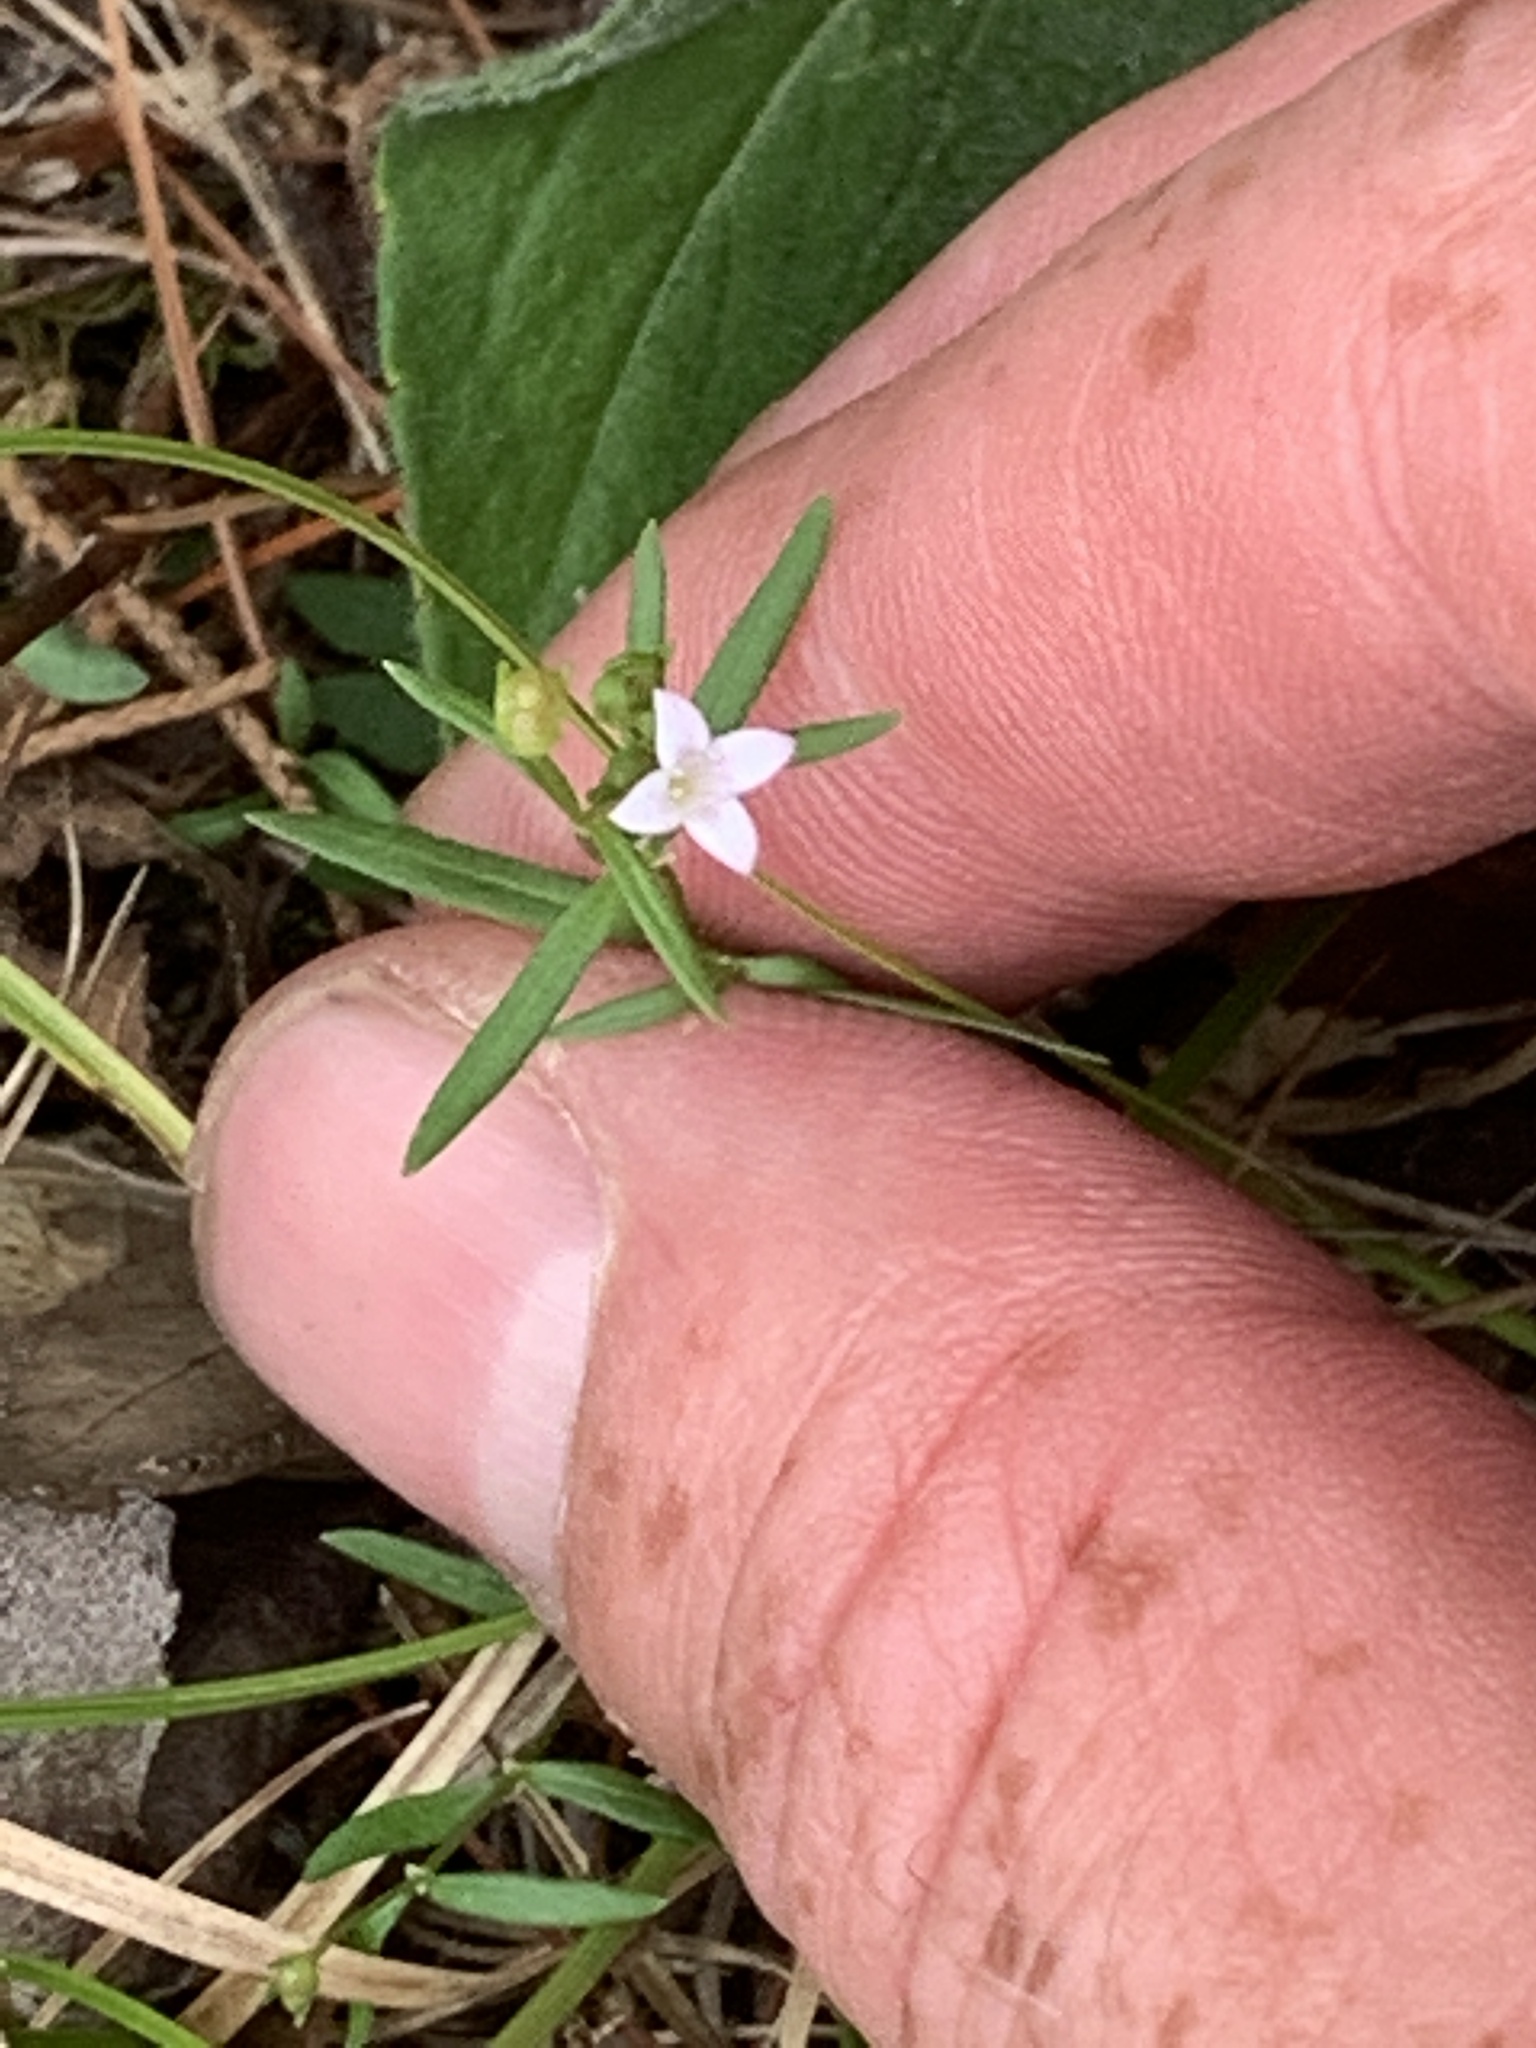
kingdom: Plantae
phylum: Tracheophyta
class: Magnoliopsida
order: Gentianales
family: Rubiaceae
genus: Houstonia
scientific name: Houstonia longifolia
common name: Long-leaved bluets
